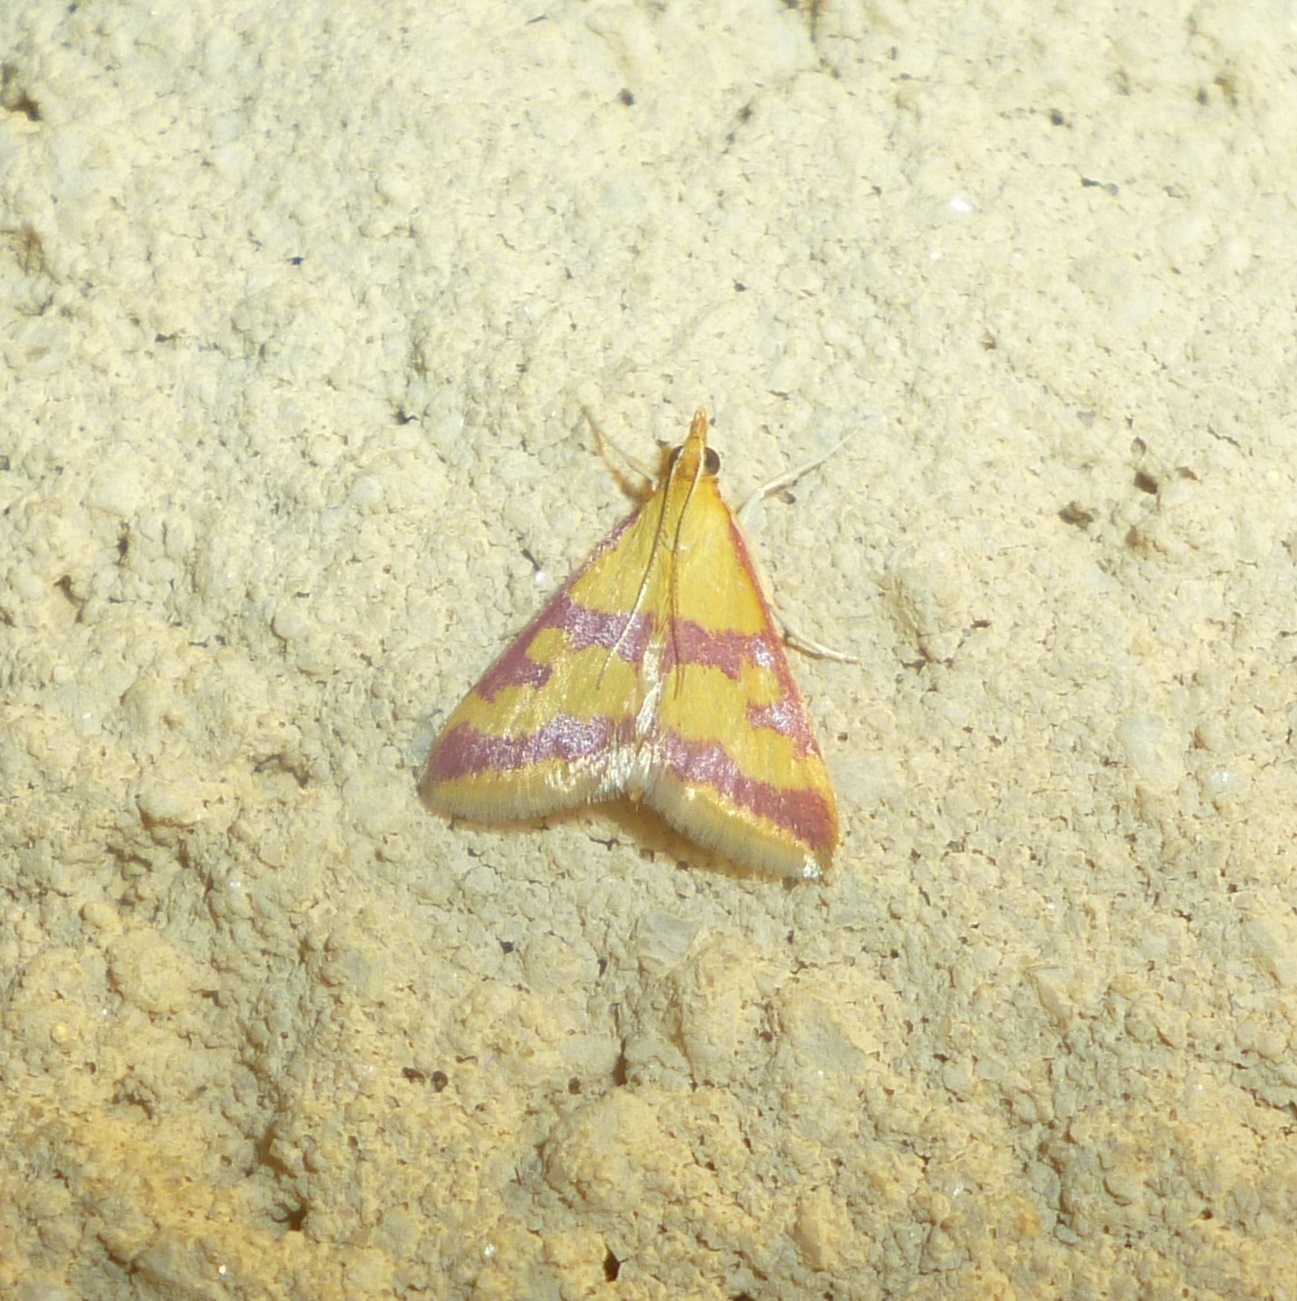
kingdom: Animalia
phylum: Arthropoda
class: Insecta
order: Lepidoptera
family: Crambidae
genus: Pyrausta
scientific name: Pyrausta sanguinalis
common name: Scarce crimson and gold
